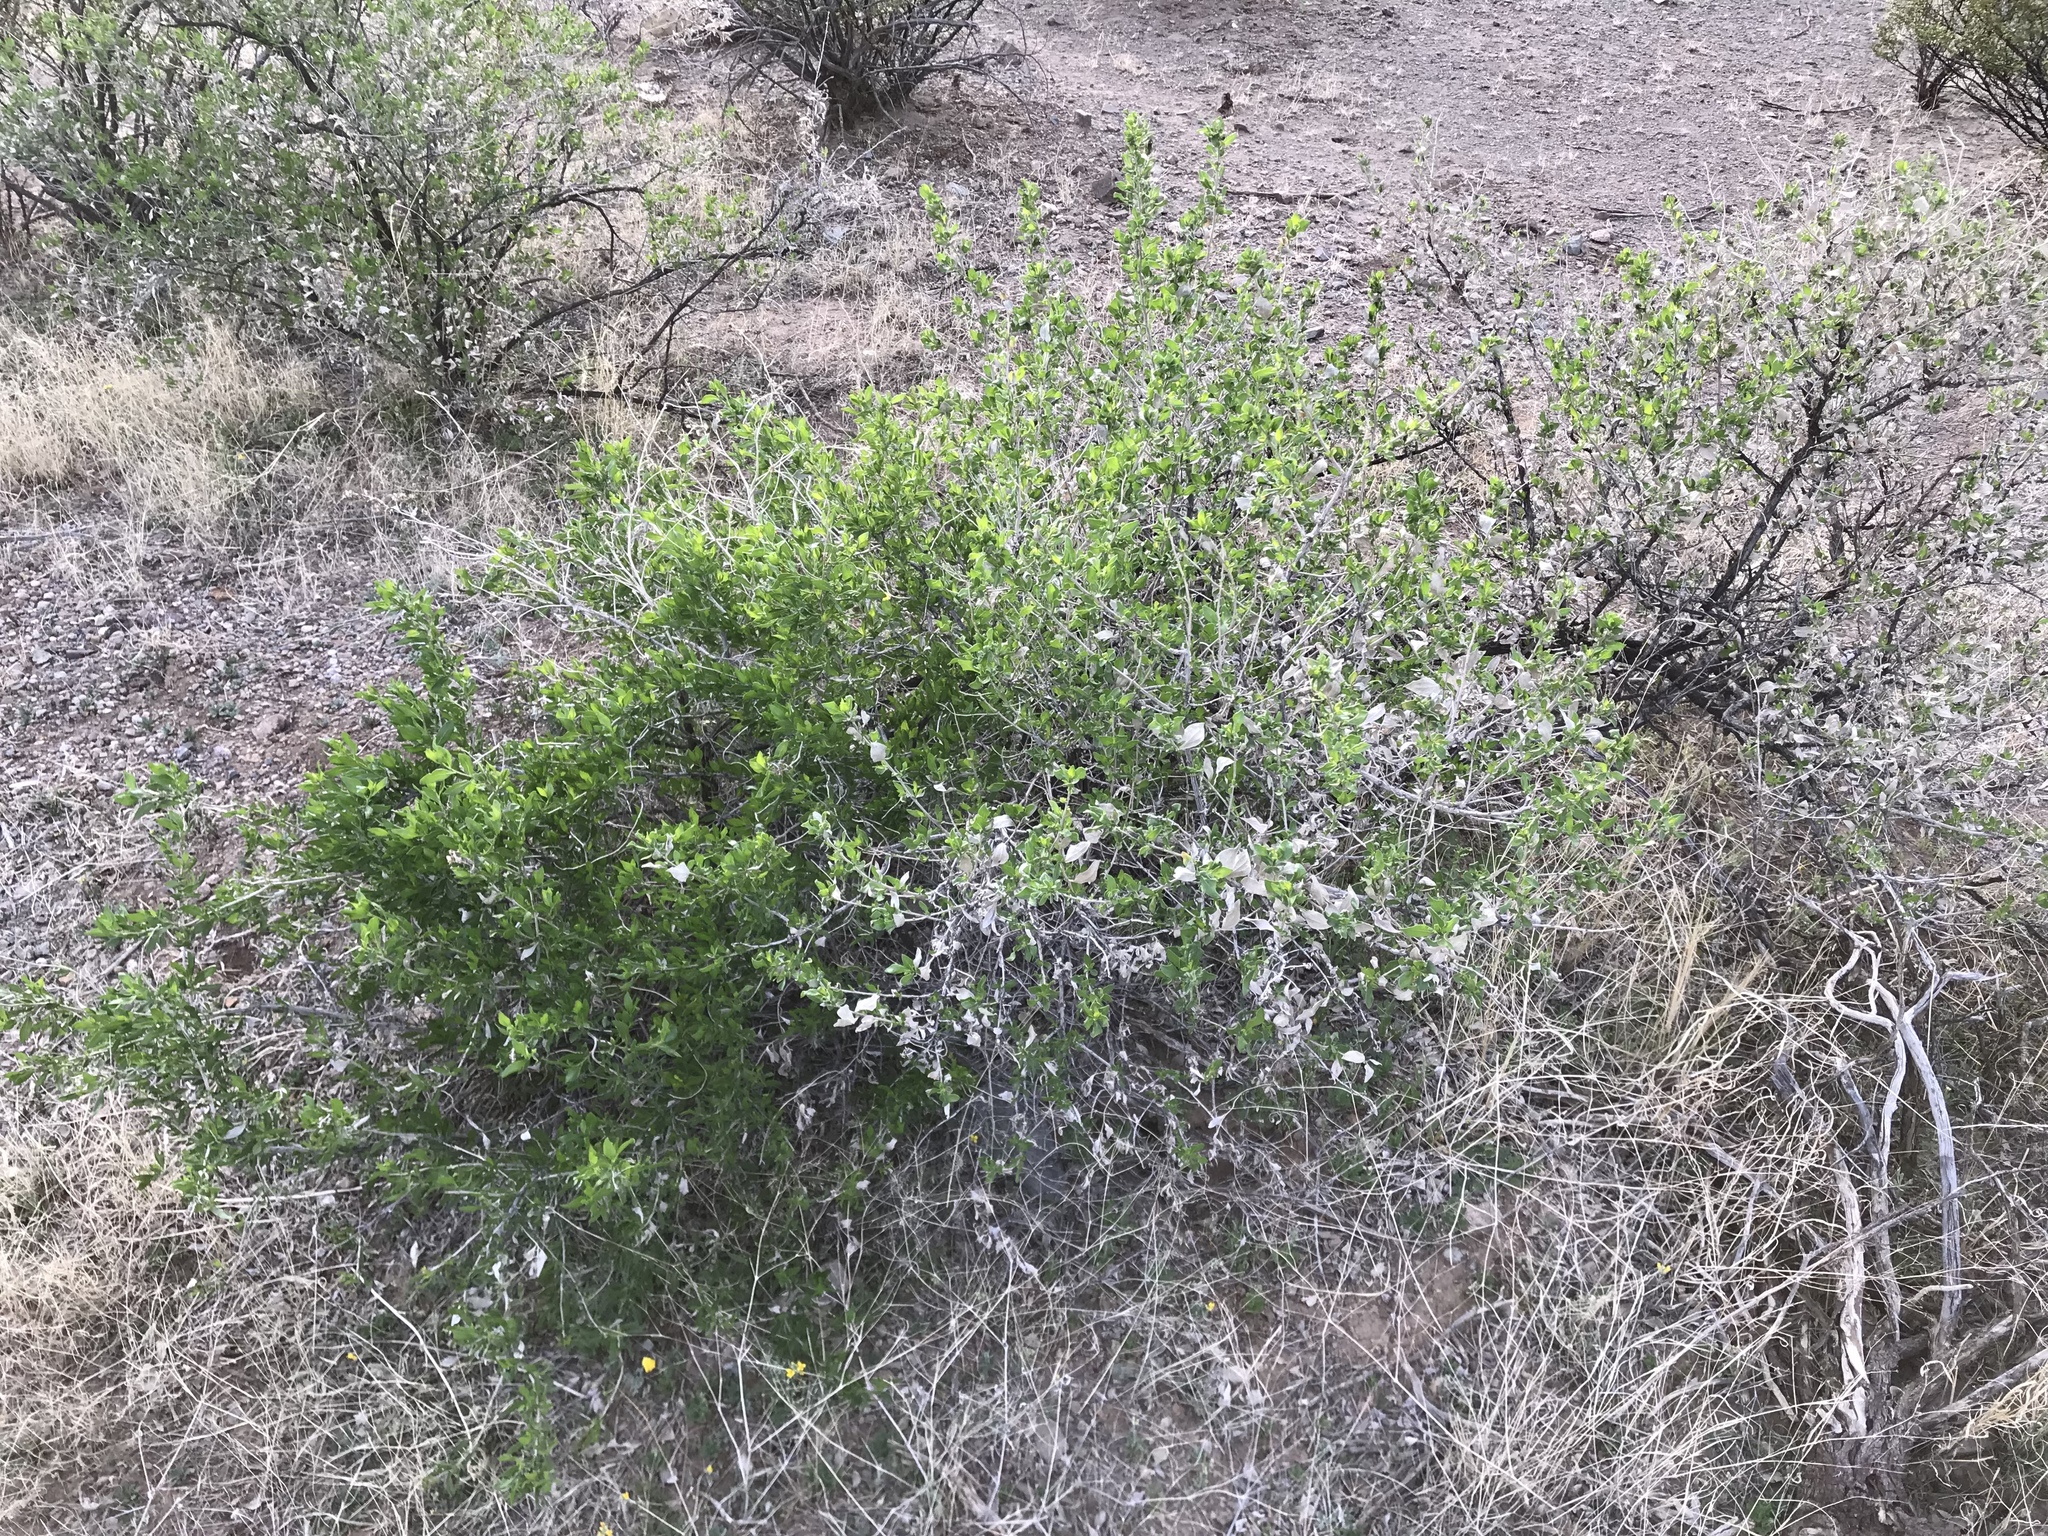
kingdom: Plantae
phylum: Tracheophyta
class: Magnoliopsida
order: Asterales
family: Asteraceae
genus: Flourensia
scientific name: Flourensia cernua
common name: Varnishbush
